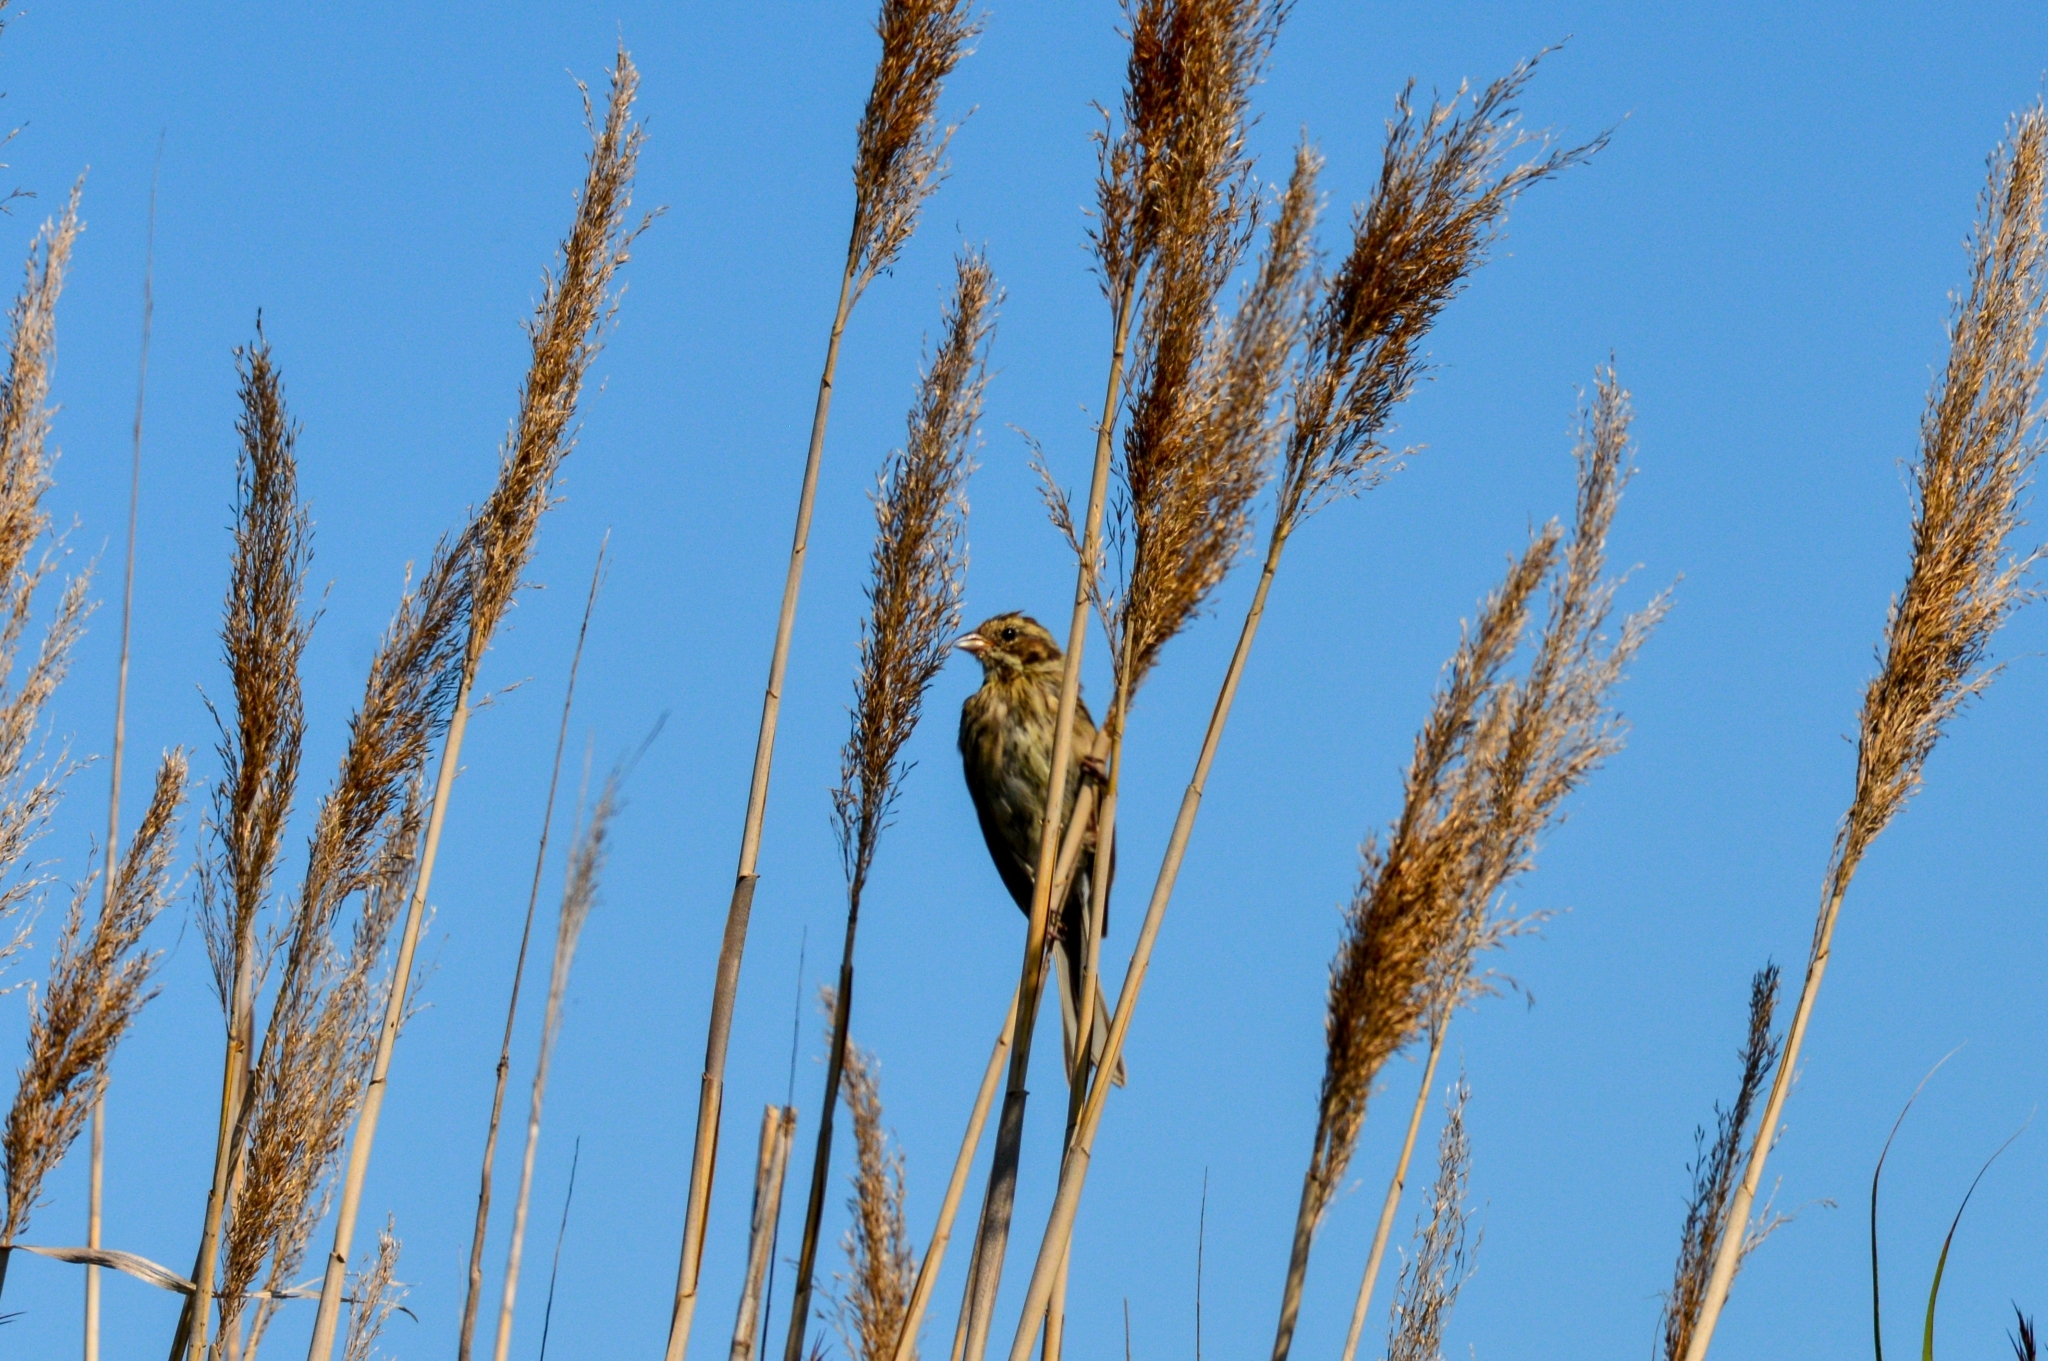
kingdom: Animalia
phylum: Chordata
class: Aves
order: Passeriformes
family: Emberizidae
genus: Emberiza
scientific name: Emberiza schoeniclus
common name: Reed bunting
